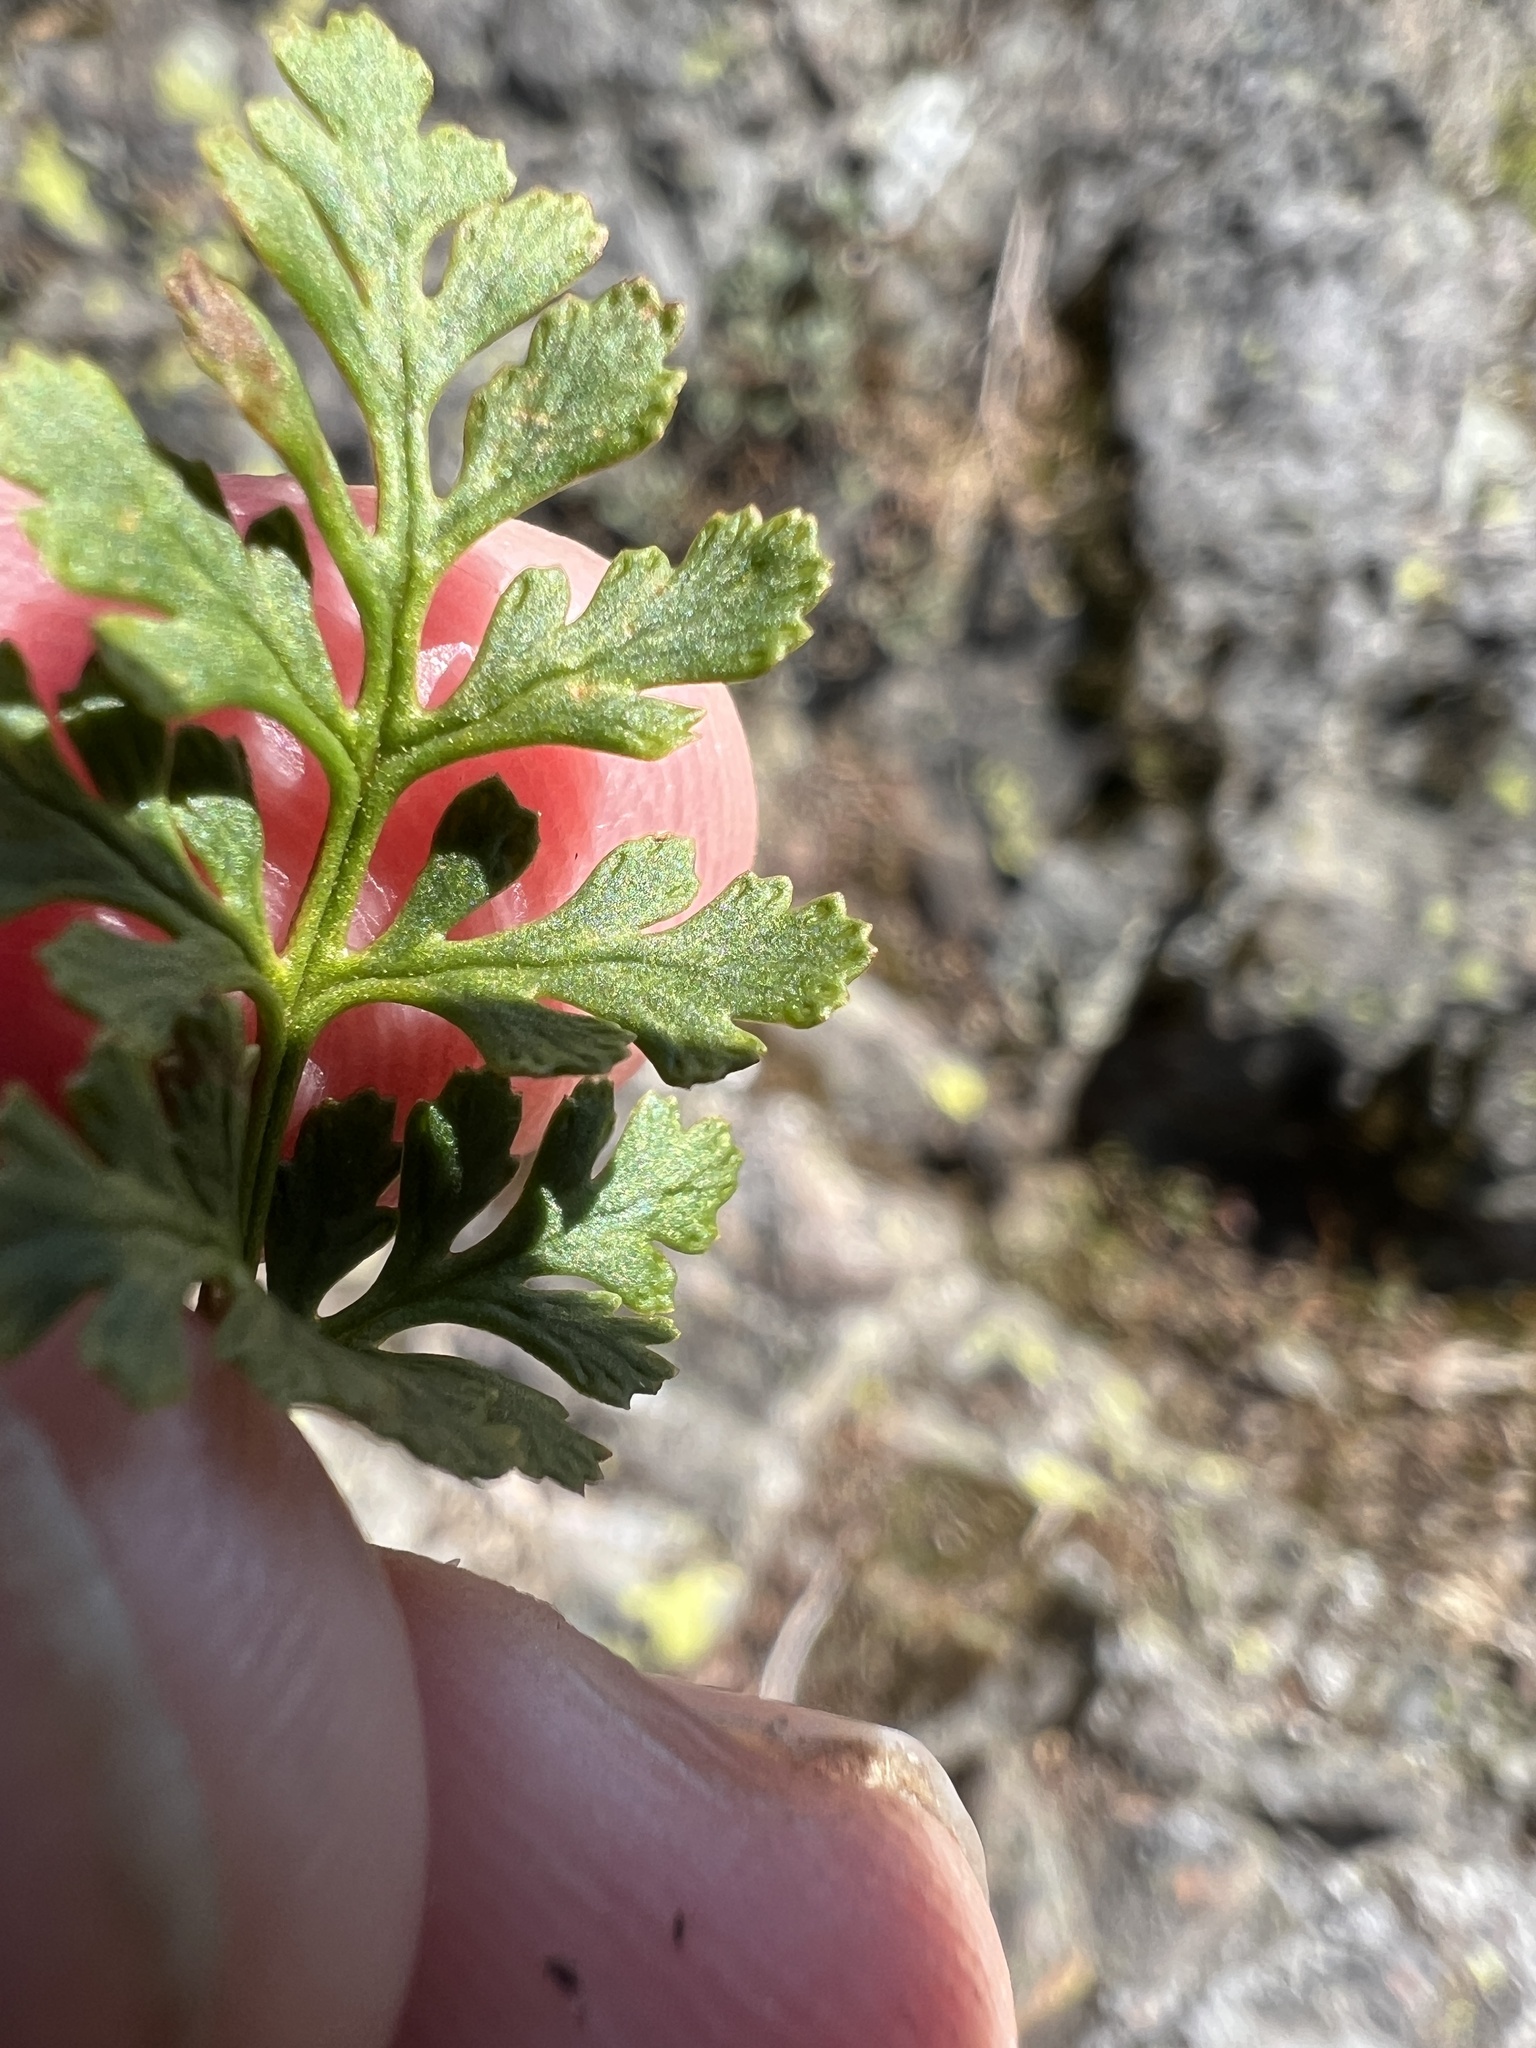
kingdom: Plantae
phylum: Tracheophyta
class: Polypodiopsida
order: Polypodiales
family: Pteridaceae
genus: Cryptogramma
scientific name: Cryptogramma acrostichoides
